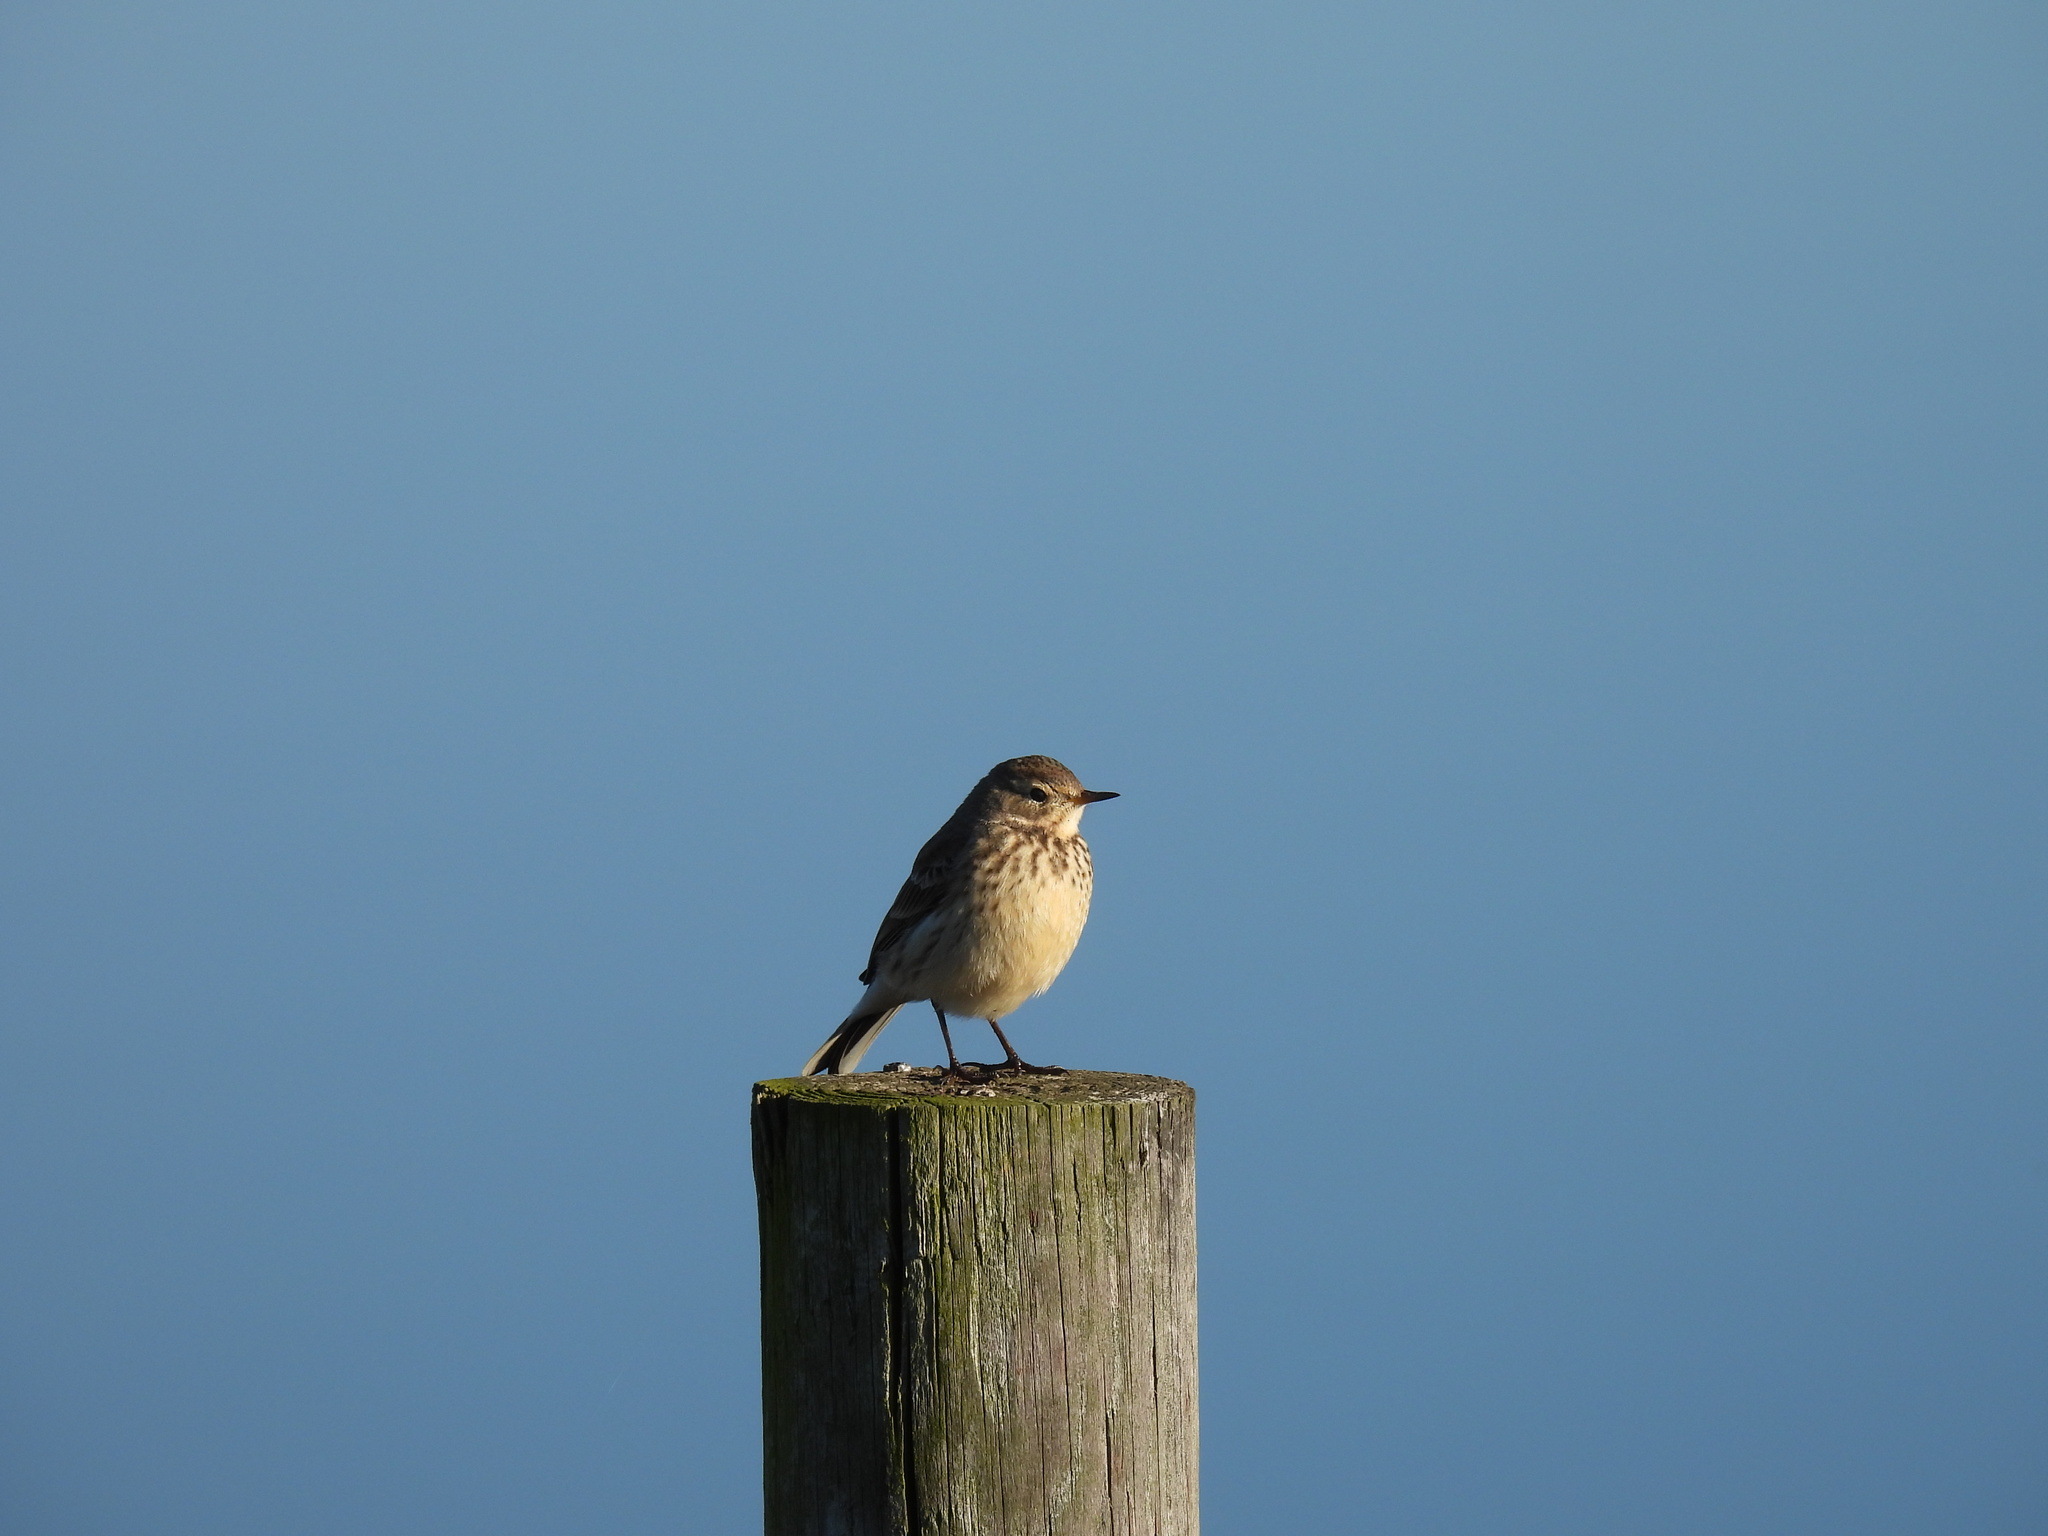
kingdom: Animalia
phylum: Chordata
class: Aves
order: Passeriformes
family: Motacillidae
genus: Anthus
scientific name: Anthus rubescens
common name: Buff-bellied pipit
